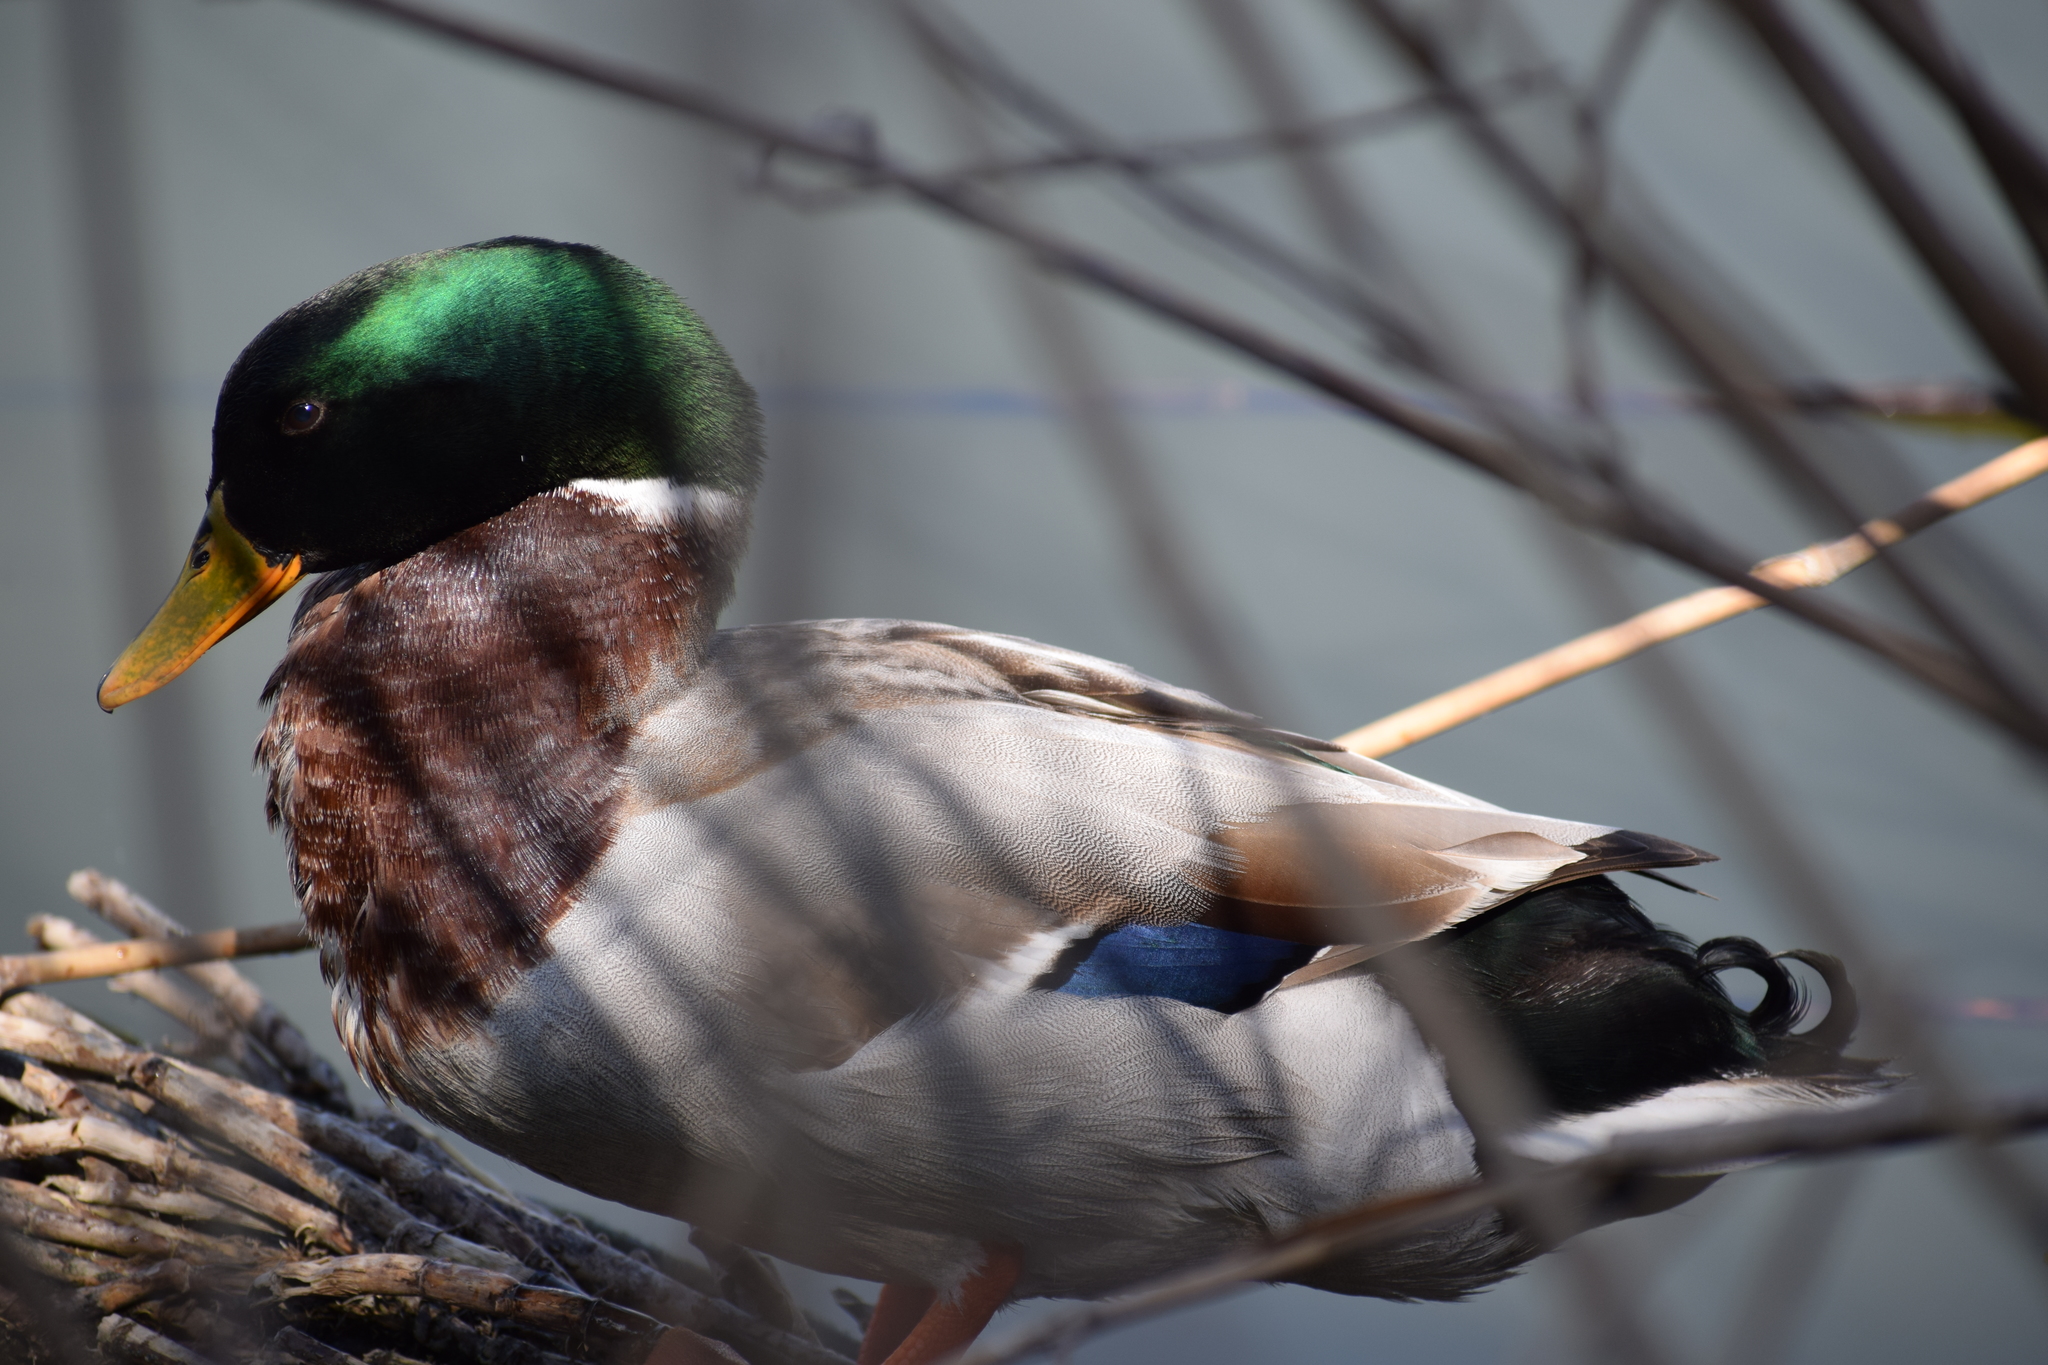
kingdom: Animalia
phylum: Chordata
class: Aves
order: Anseriformes
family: Anatidae
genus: Anas
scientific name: Anas platyrhynchos
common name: Mallard
